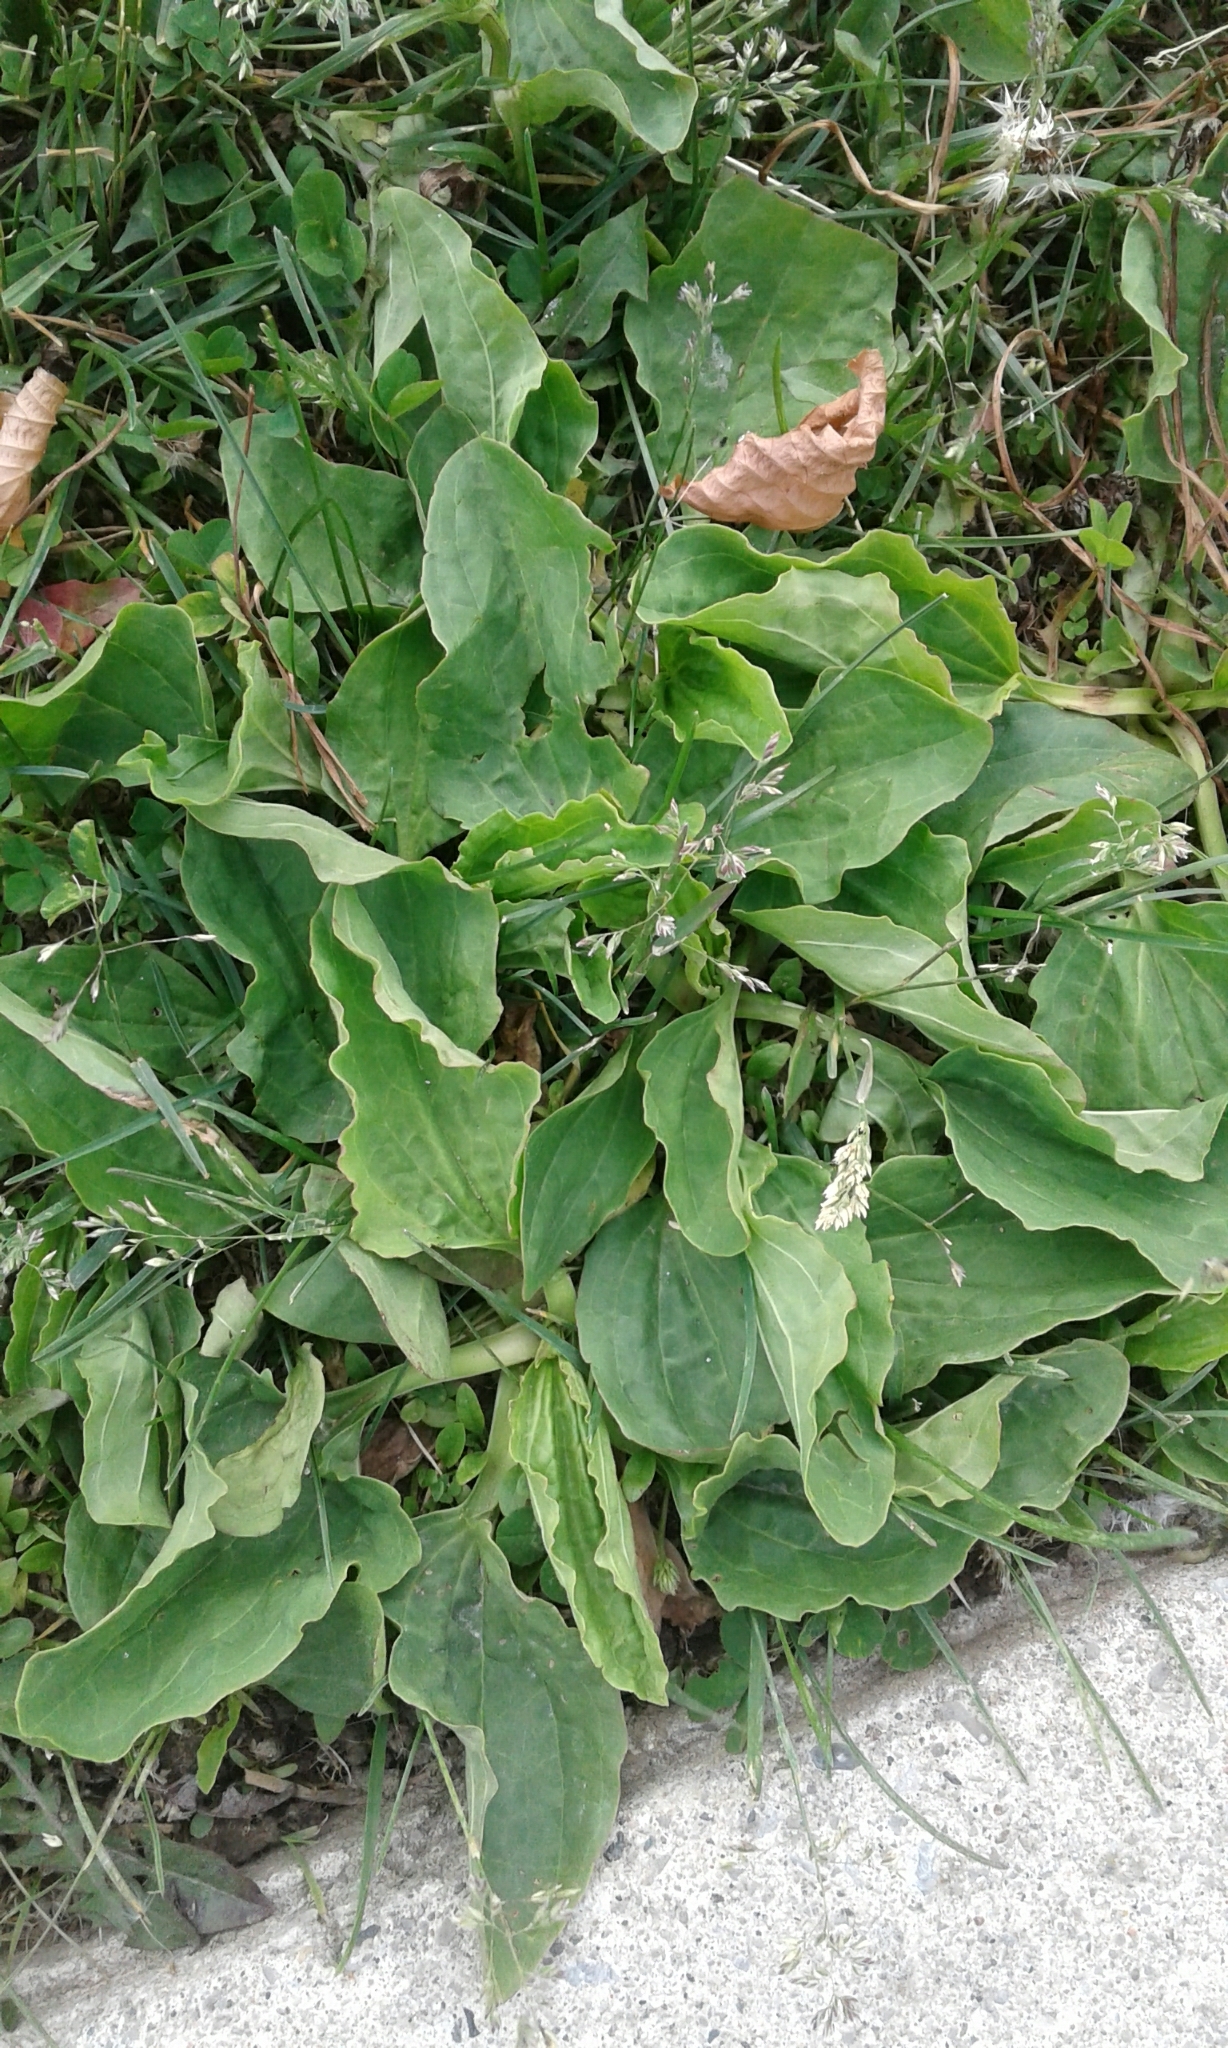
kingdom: Plantae
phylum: Tracheophyta
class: Magnoliopsida
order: Lamiales
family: Plantaginaceae
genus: Plantago
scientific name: Plantago major
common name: Common plantain
